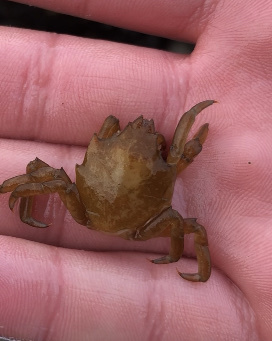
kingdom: Animalia
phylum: Arthropoda
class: Malacostraca
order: Decapoda
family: Epialtidae
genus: Pugettia
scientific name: Pugettia producta
